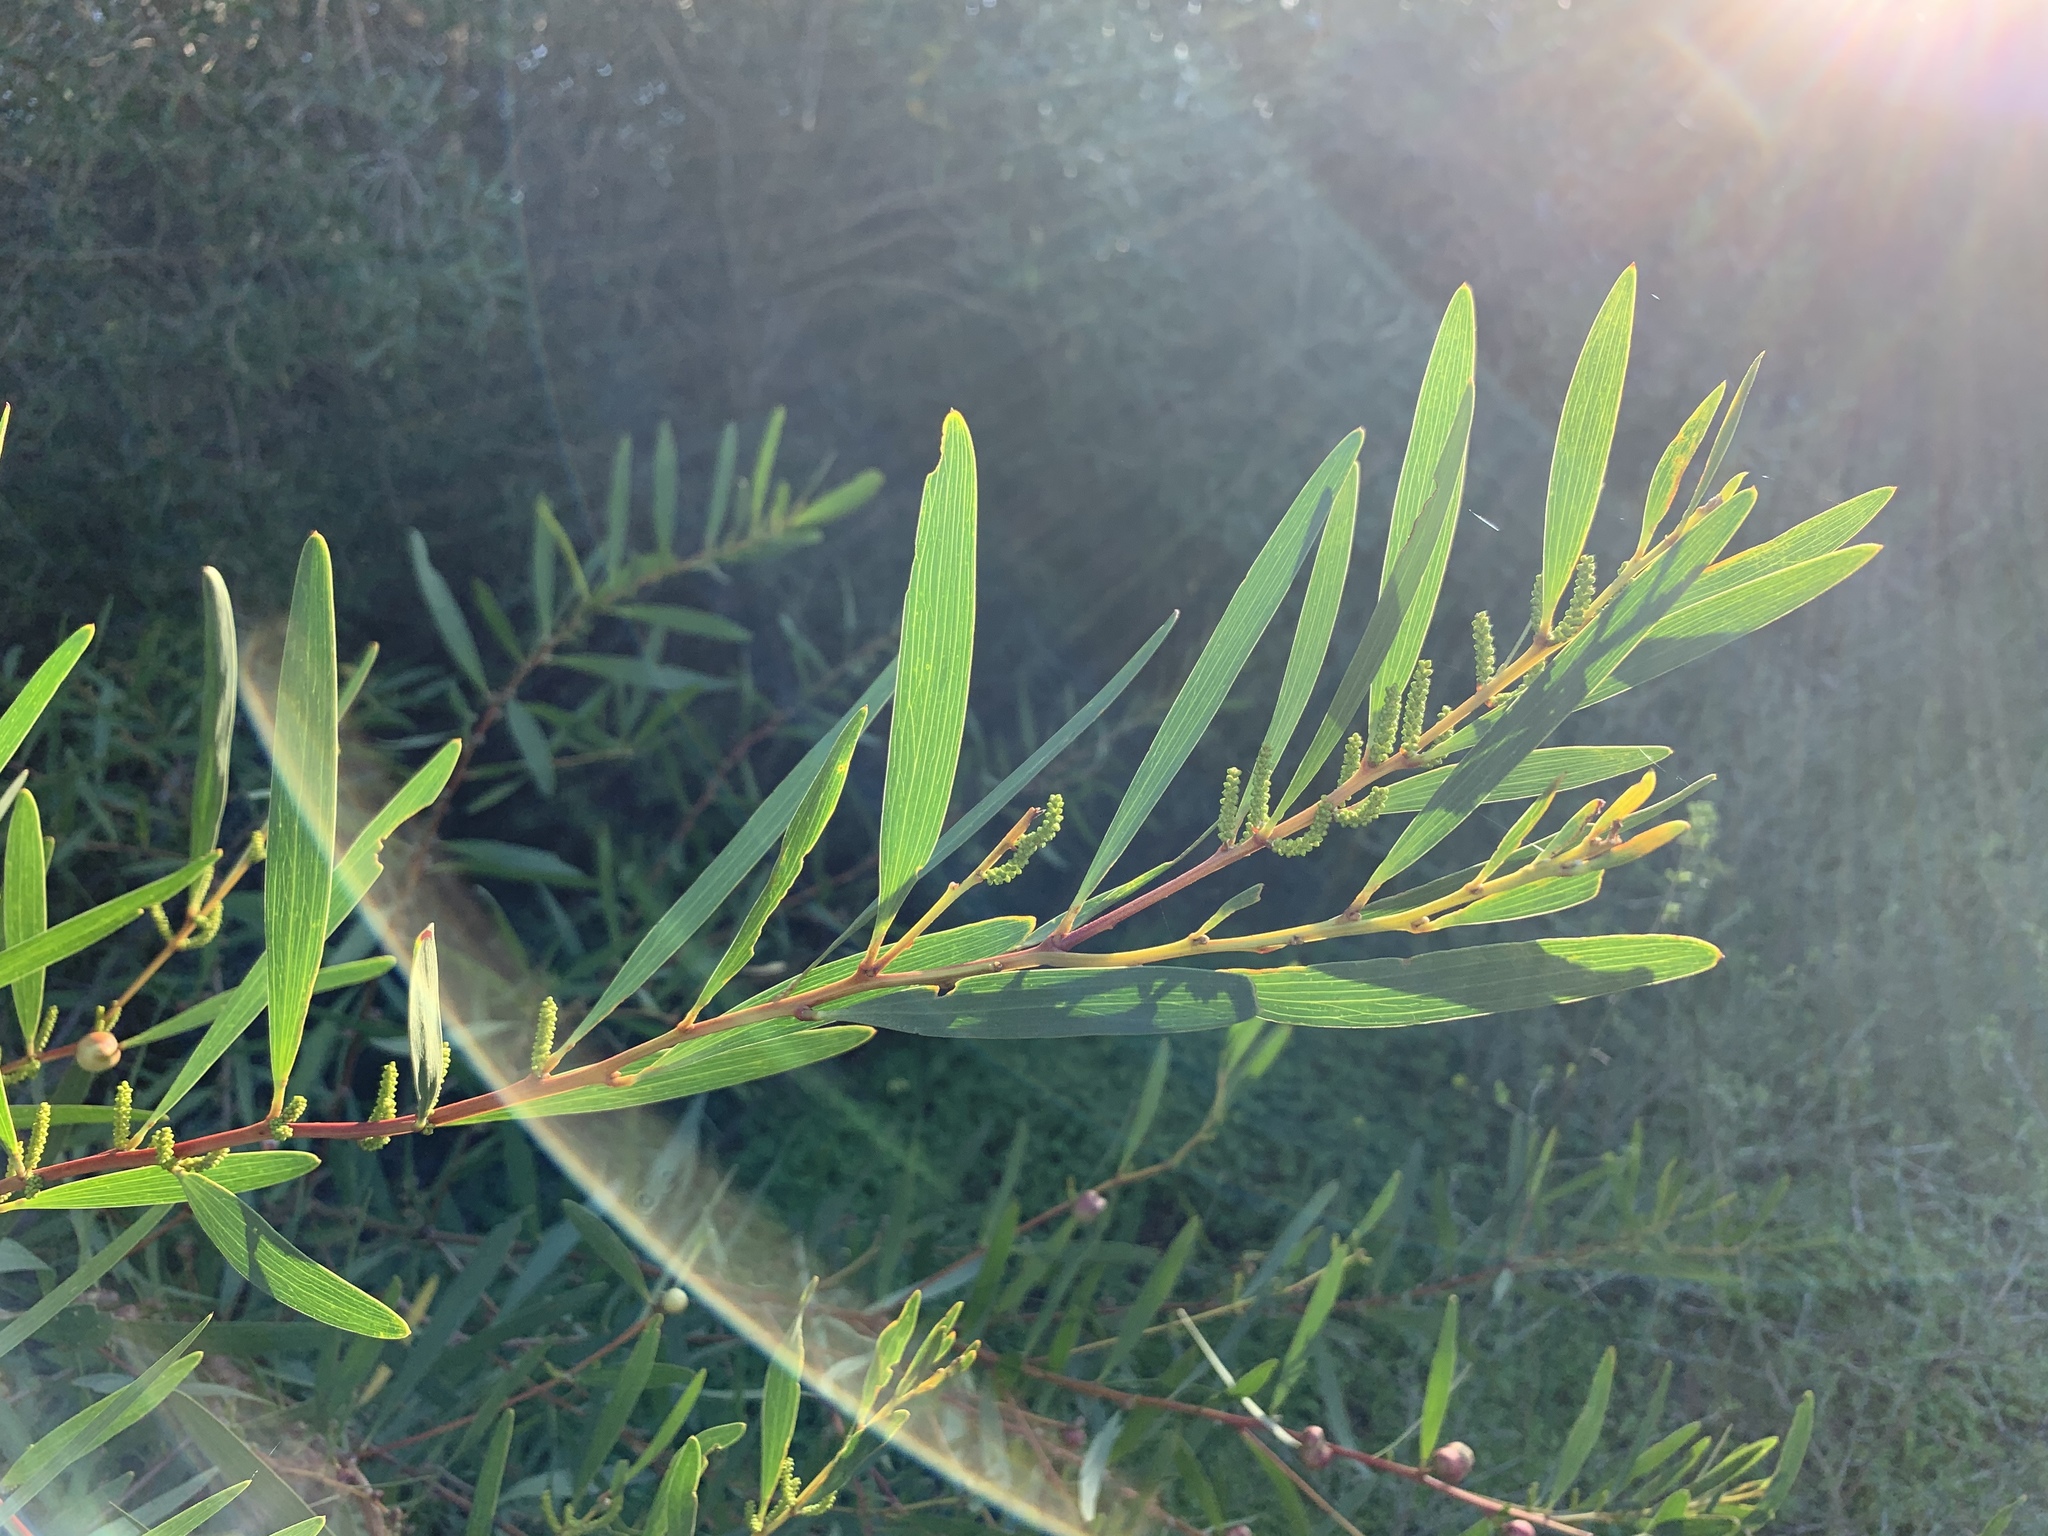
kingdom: Plantae
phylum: Tracheophyta
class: Magnoliopsida
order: Fabales
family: Fabaceae
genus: Acacia
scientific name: Acacia longifolia
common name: Sydney golden wattle
